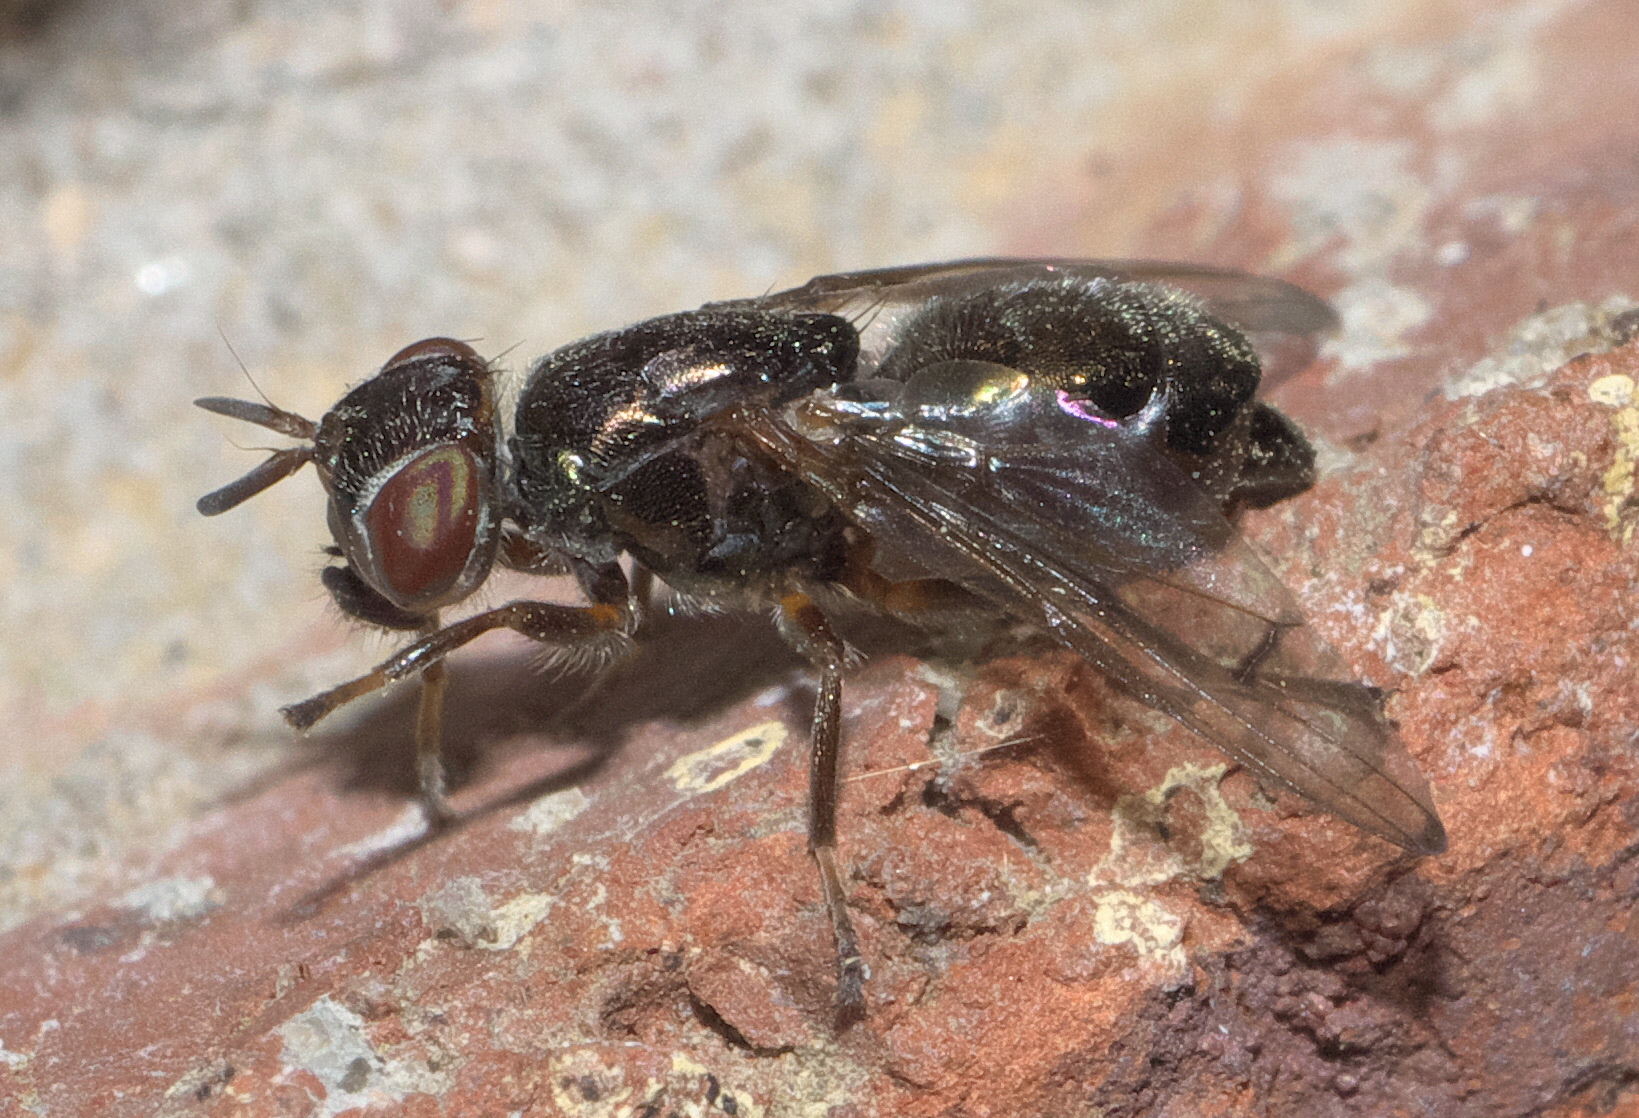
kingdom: Animalia
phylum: Arthropoda
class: Insecta
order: Diptera
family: Platystomatidae
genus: Senopterina
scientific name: Senopterina foxleei
